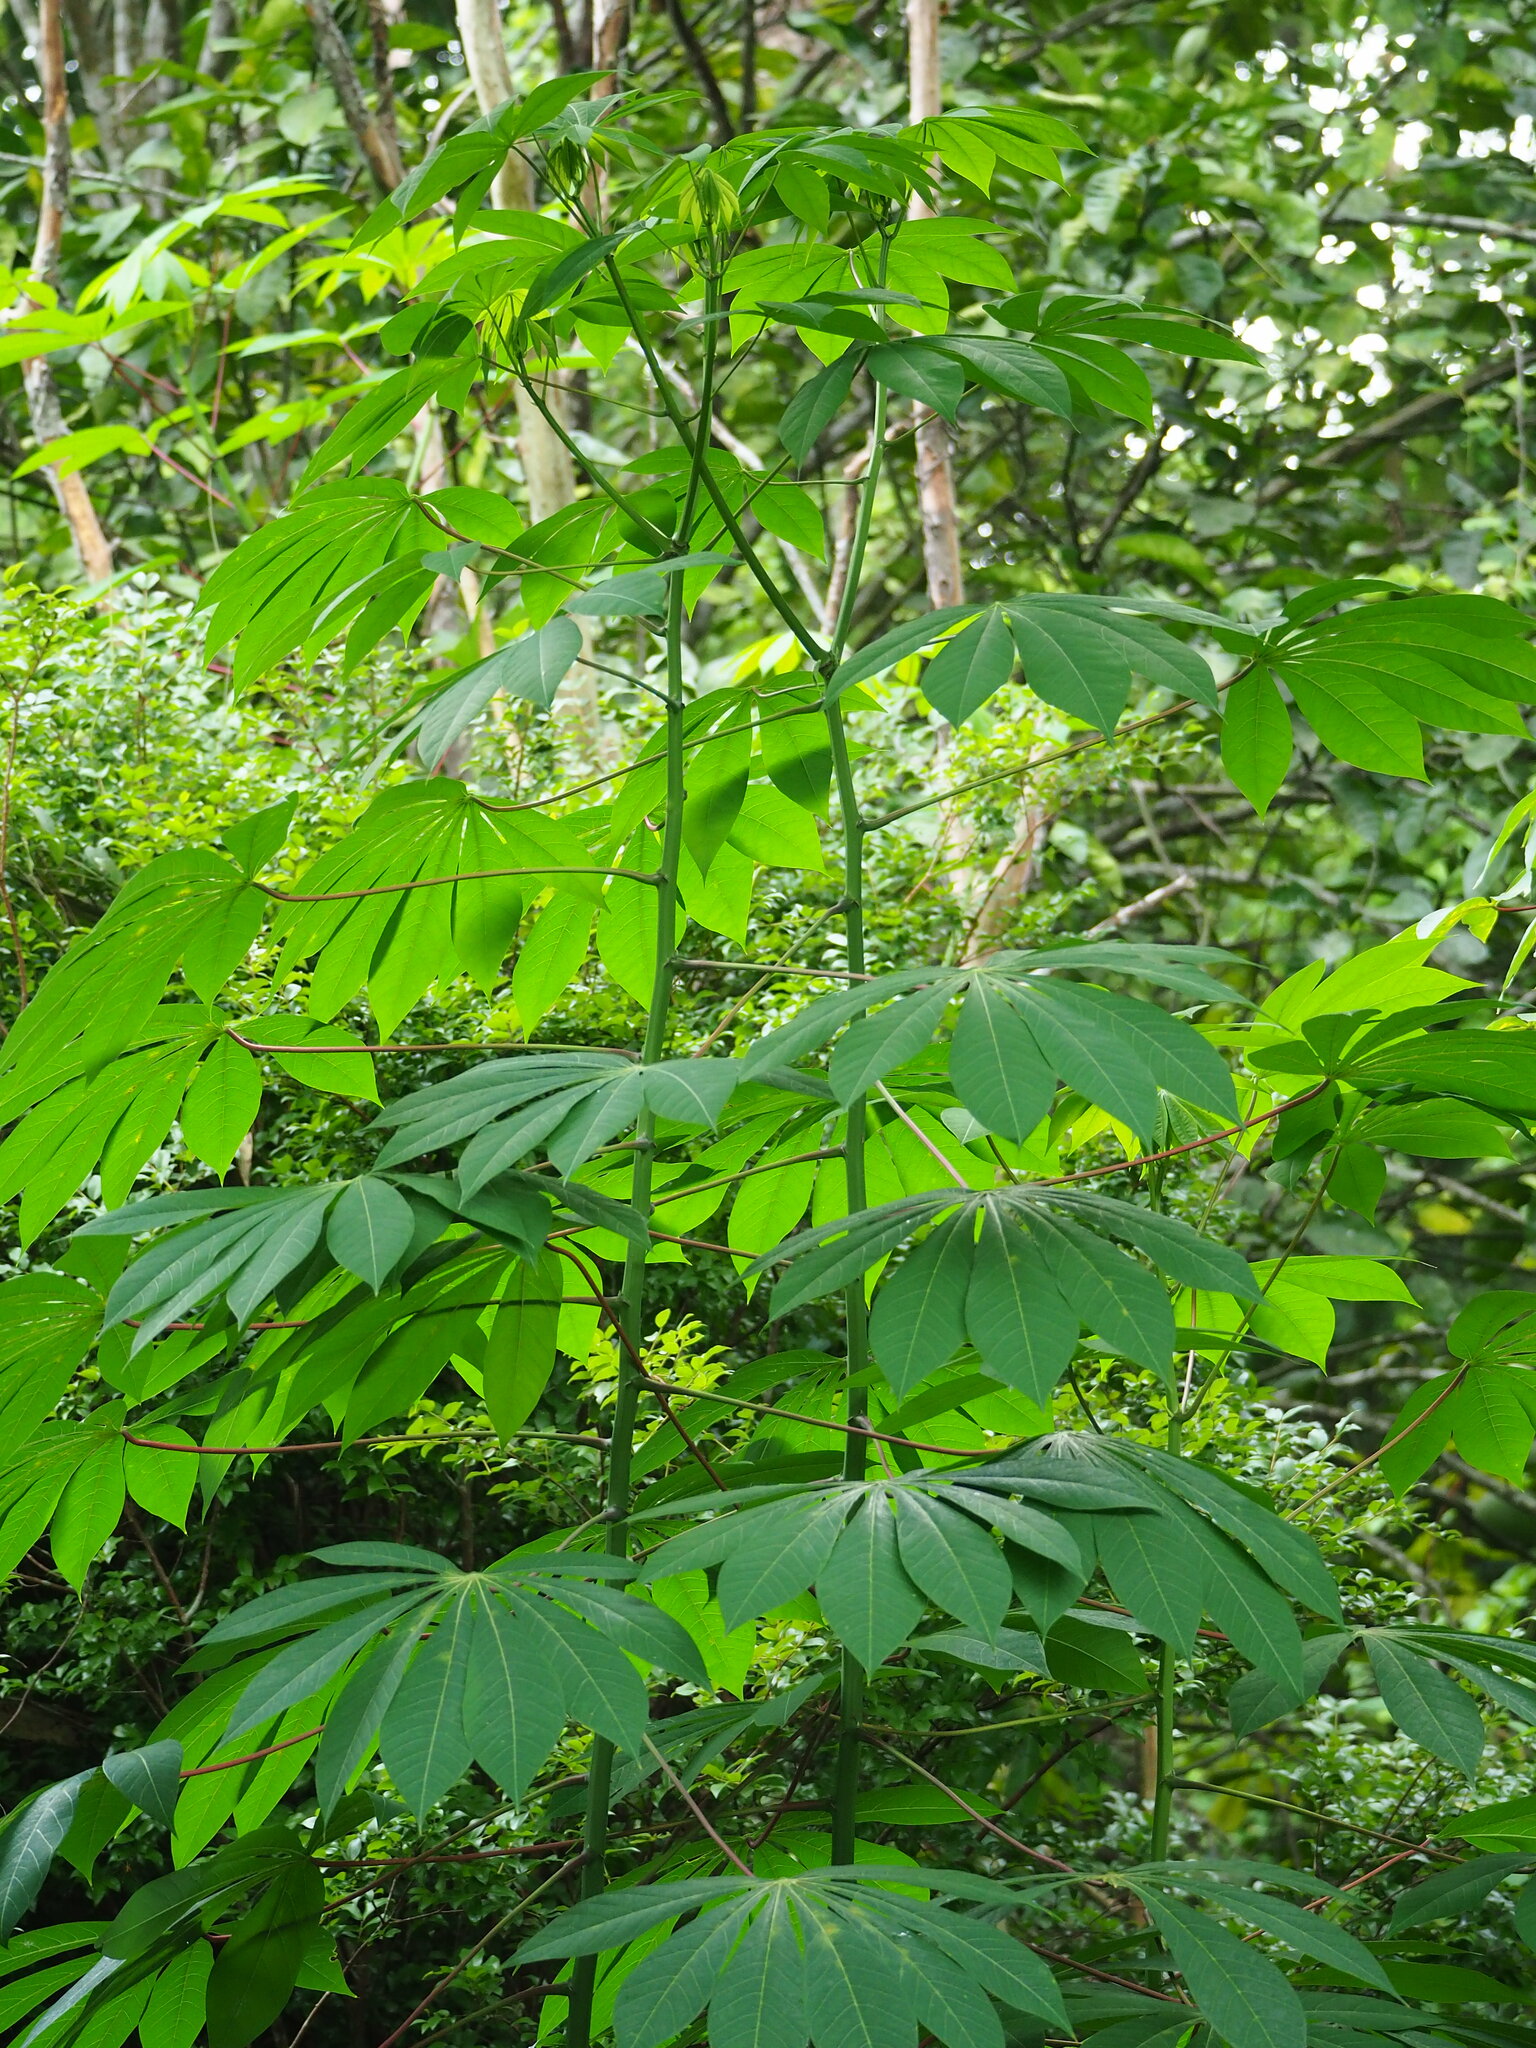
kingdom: Plantae
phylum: Tracheophyta
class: Magnoliopsida
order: Malpighiales
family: Euphorbiaceae
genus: Manihot
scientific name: Manihot esculenta
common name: Cassava
